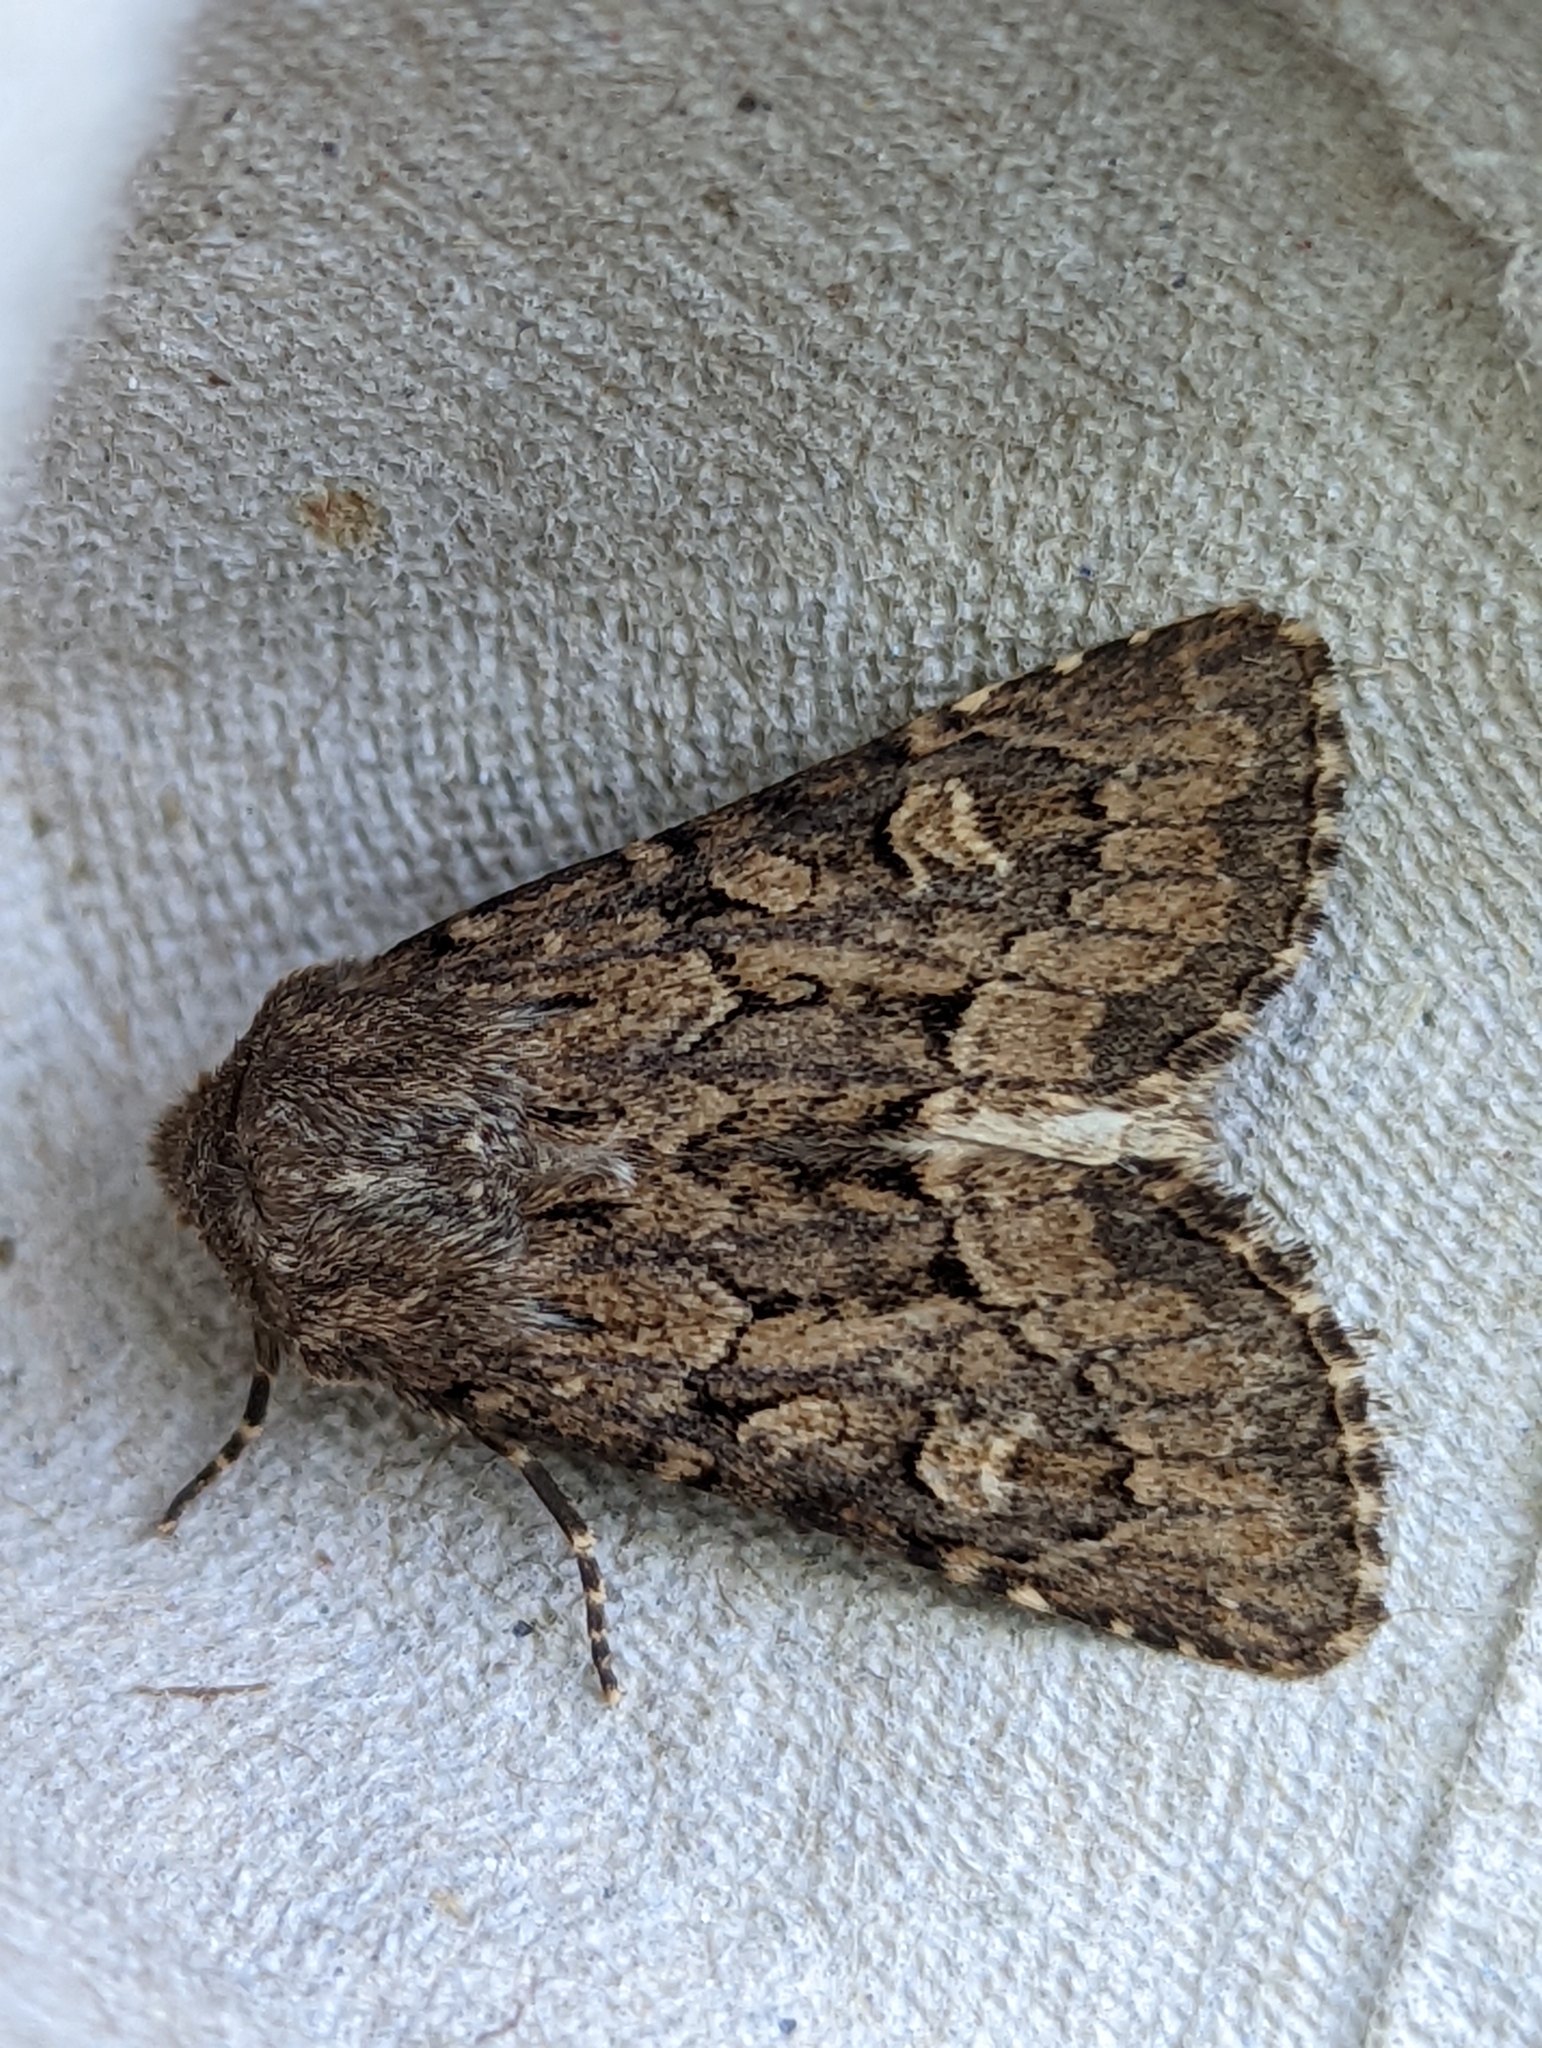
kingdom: Animalia
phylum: Arthropoda
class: Insecta
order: Lepidoptera
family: Noctuidae
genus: Luperina
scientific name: Luperina testacea
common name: Flounced rustic
